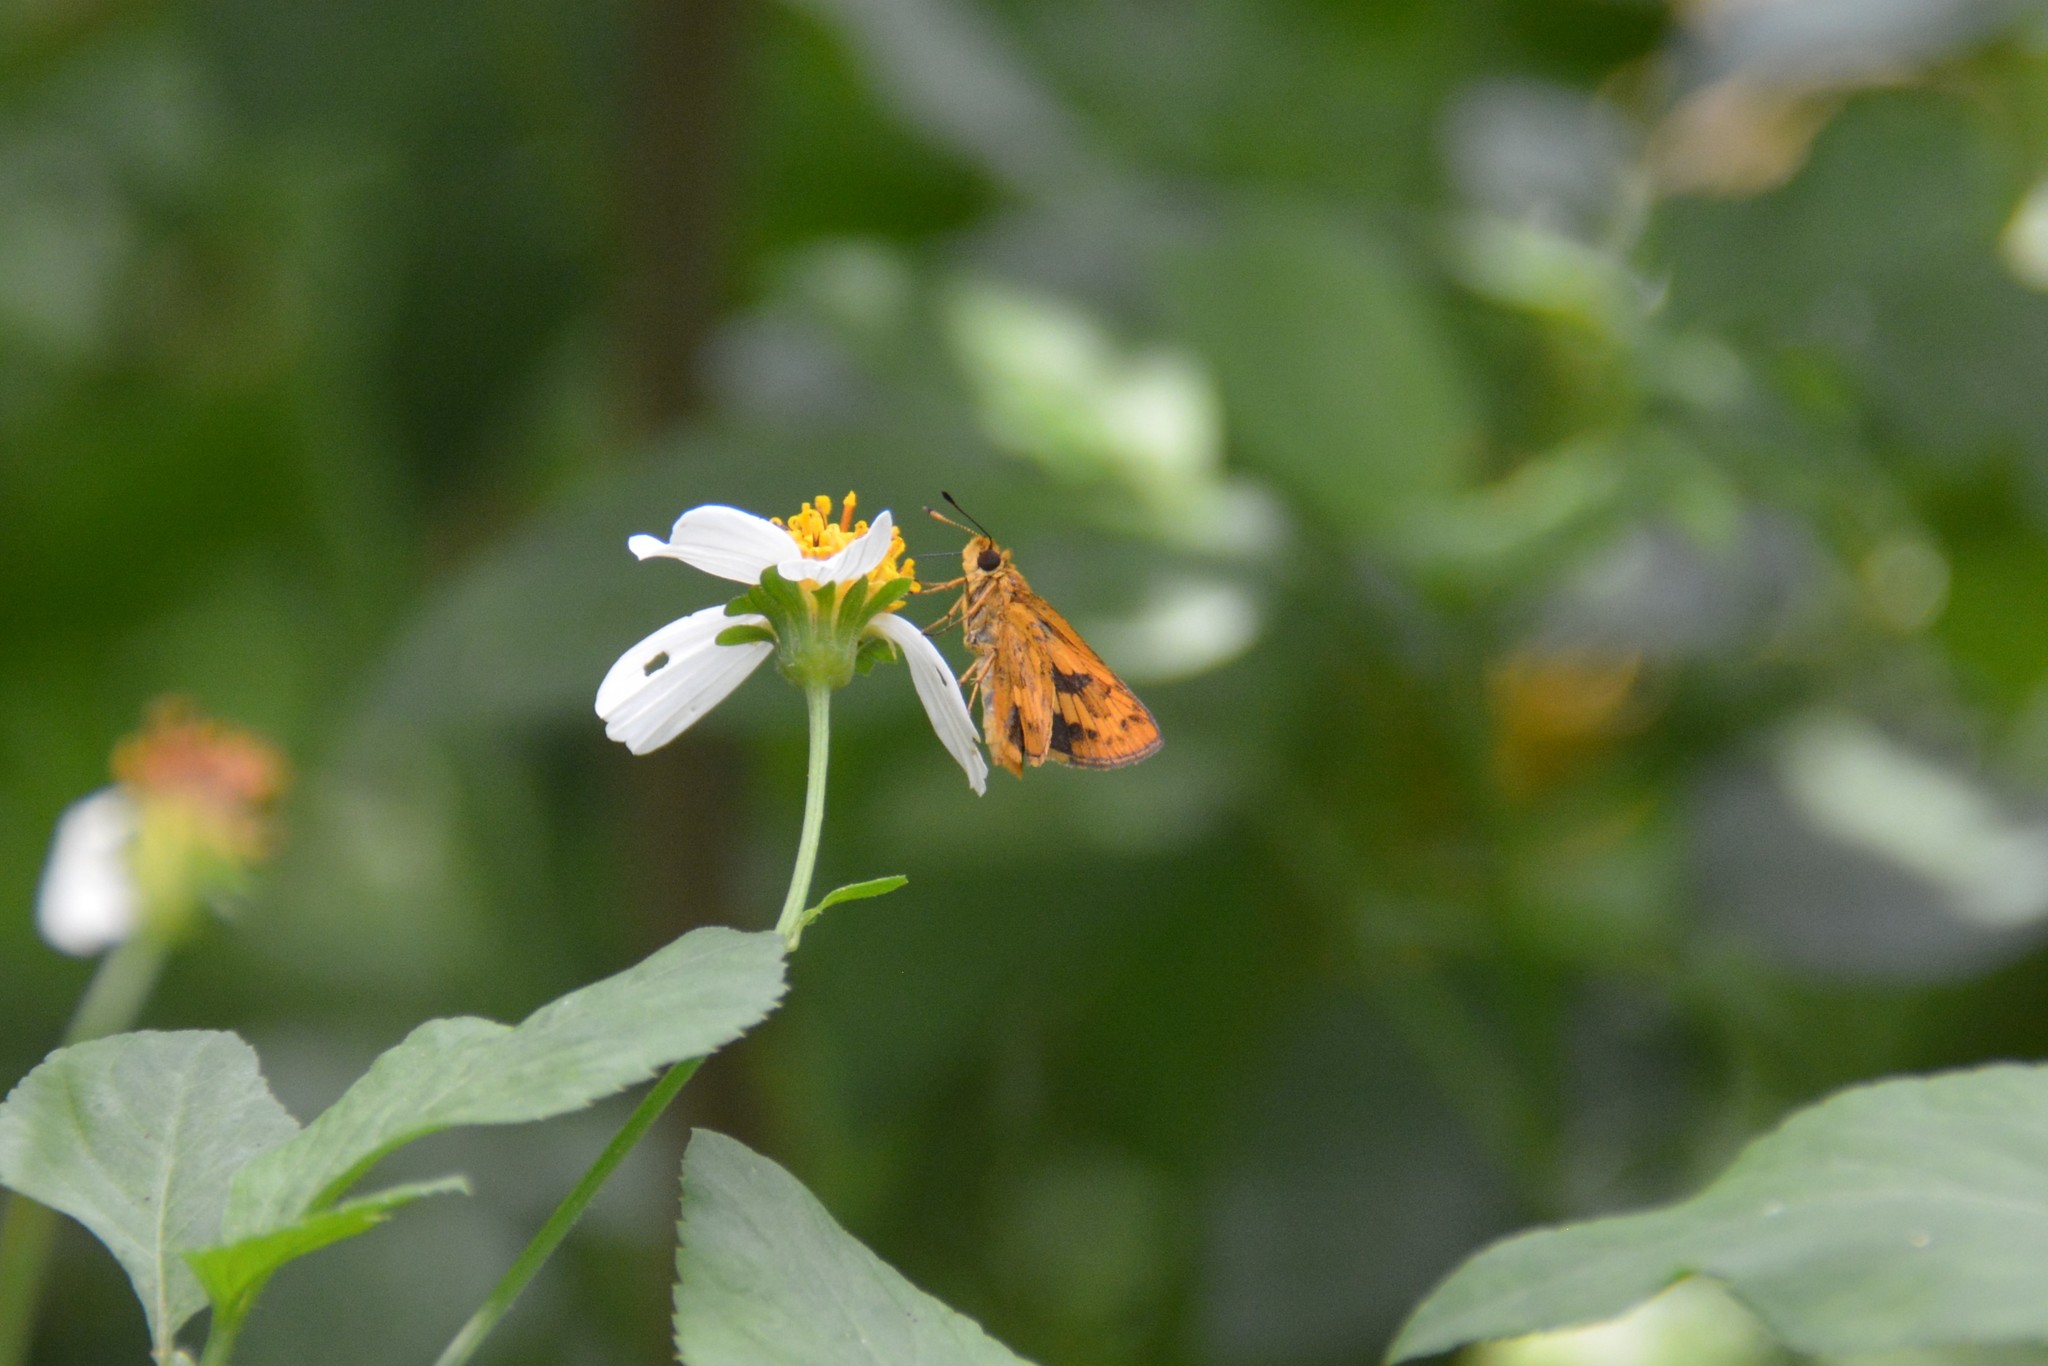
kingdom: Animalia
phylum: Arthropoda
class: Insecta
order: Lepidoptera
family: Hesperiidae
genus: Potanthus
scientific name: Potanthus confucius
